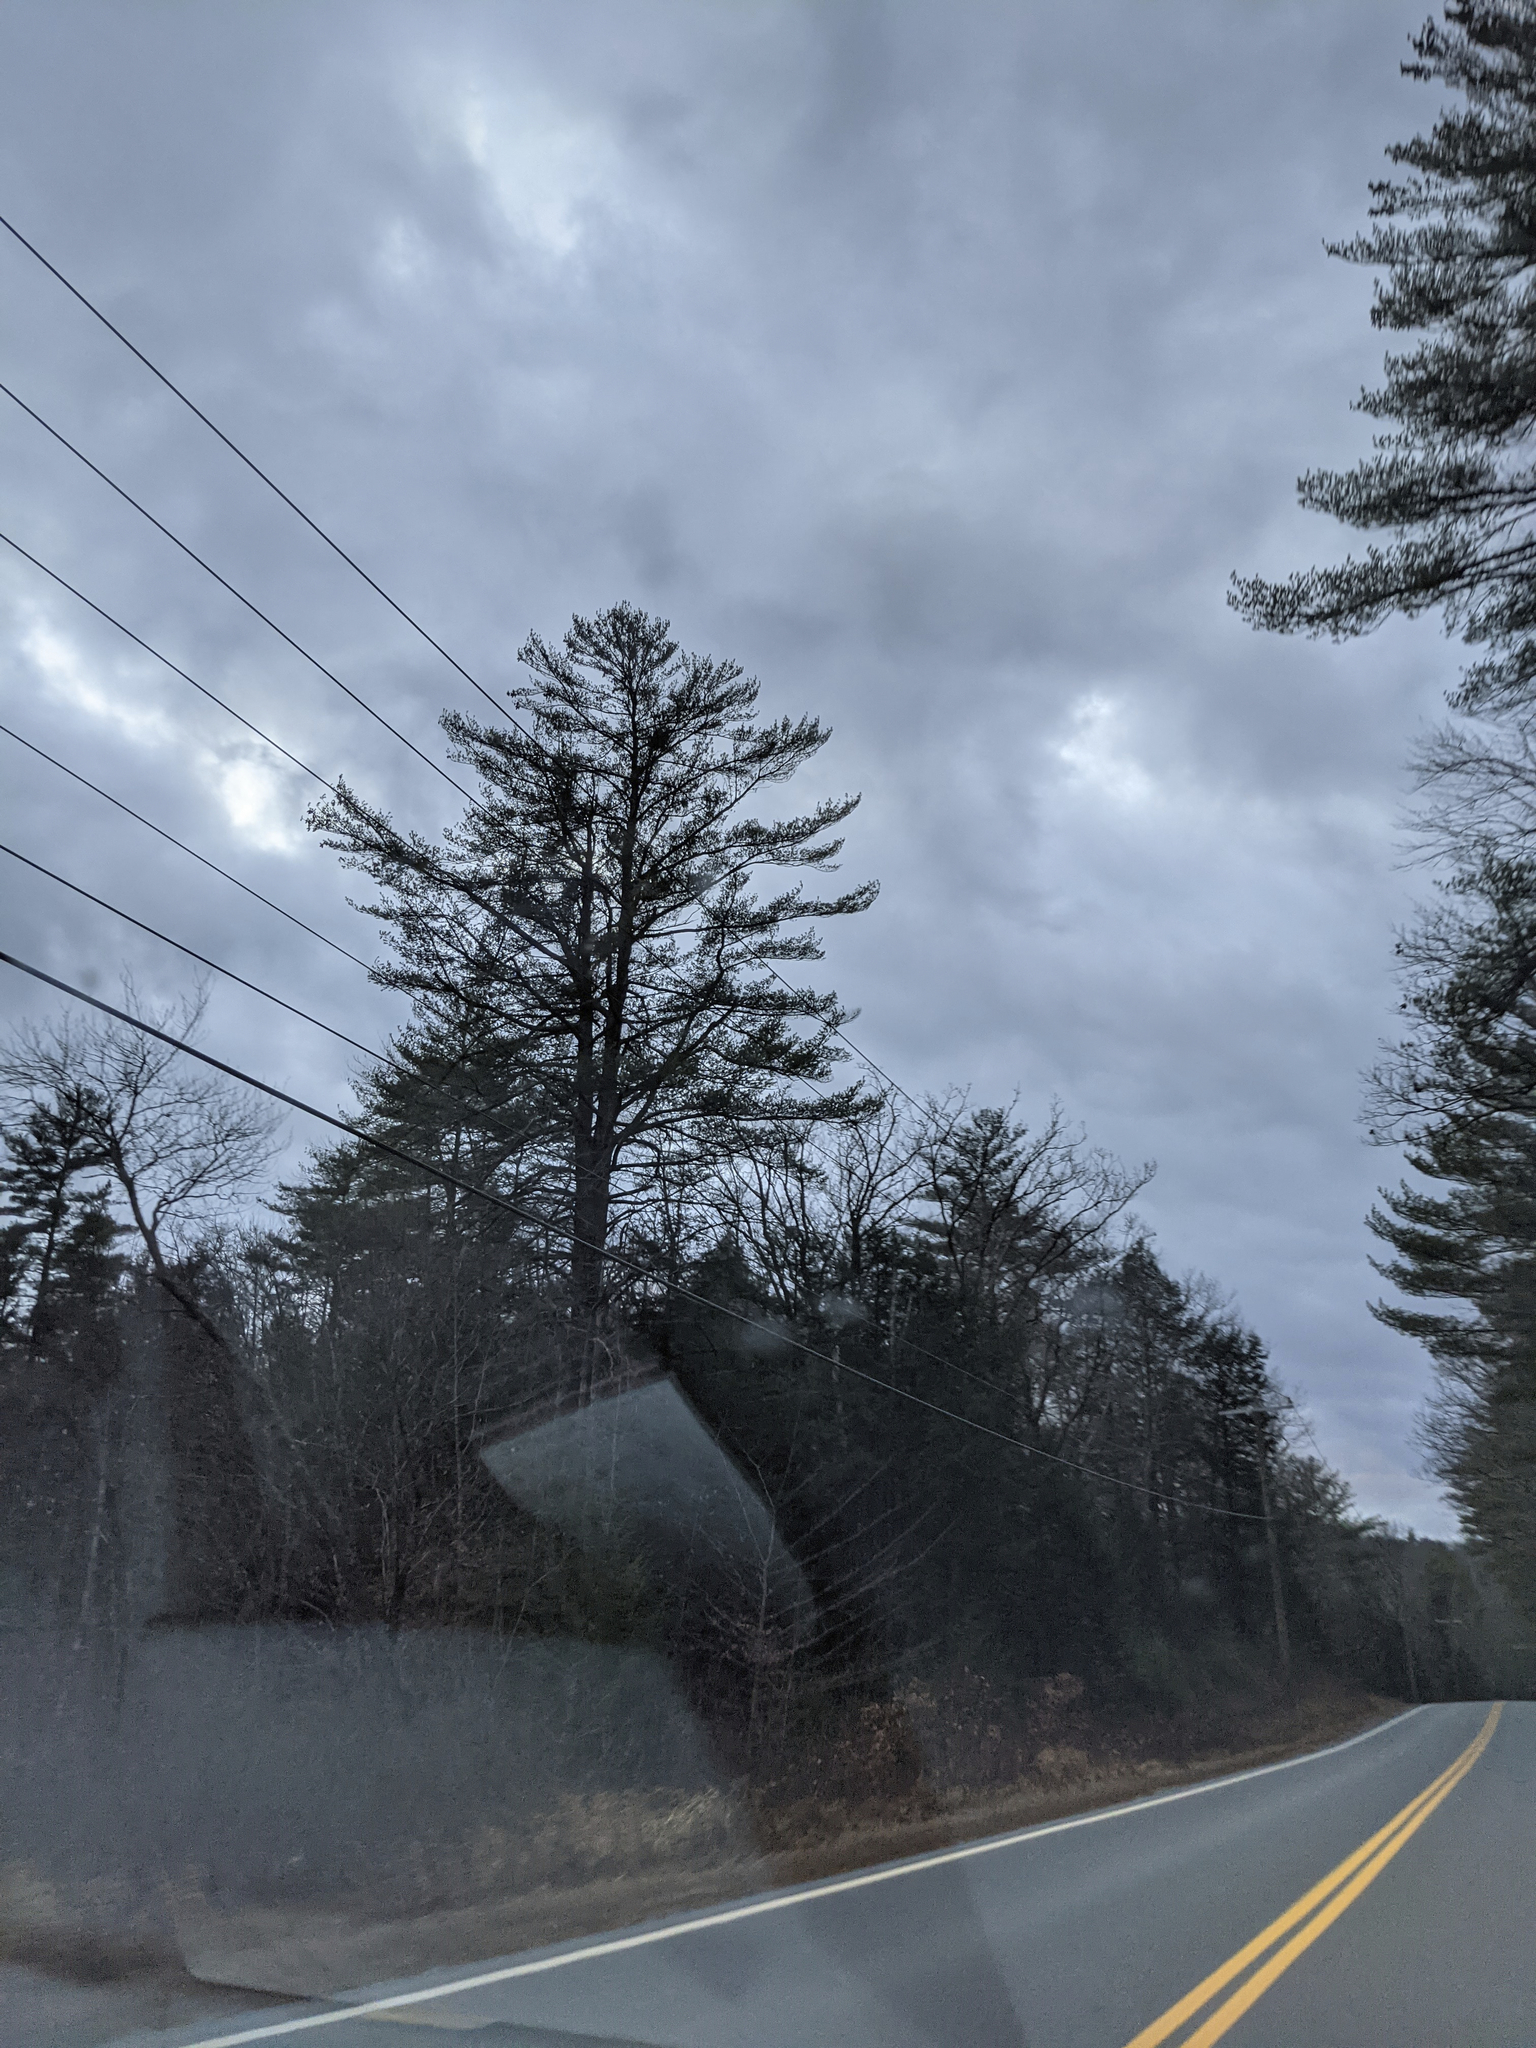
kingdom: Plantae
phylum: Tracheophyta
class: Pinopsida
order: Pinales
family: Pinaceae
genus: Pinus
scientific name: Pinus strobus
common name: Weymouth pine
